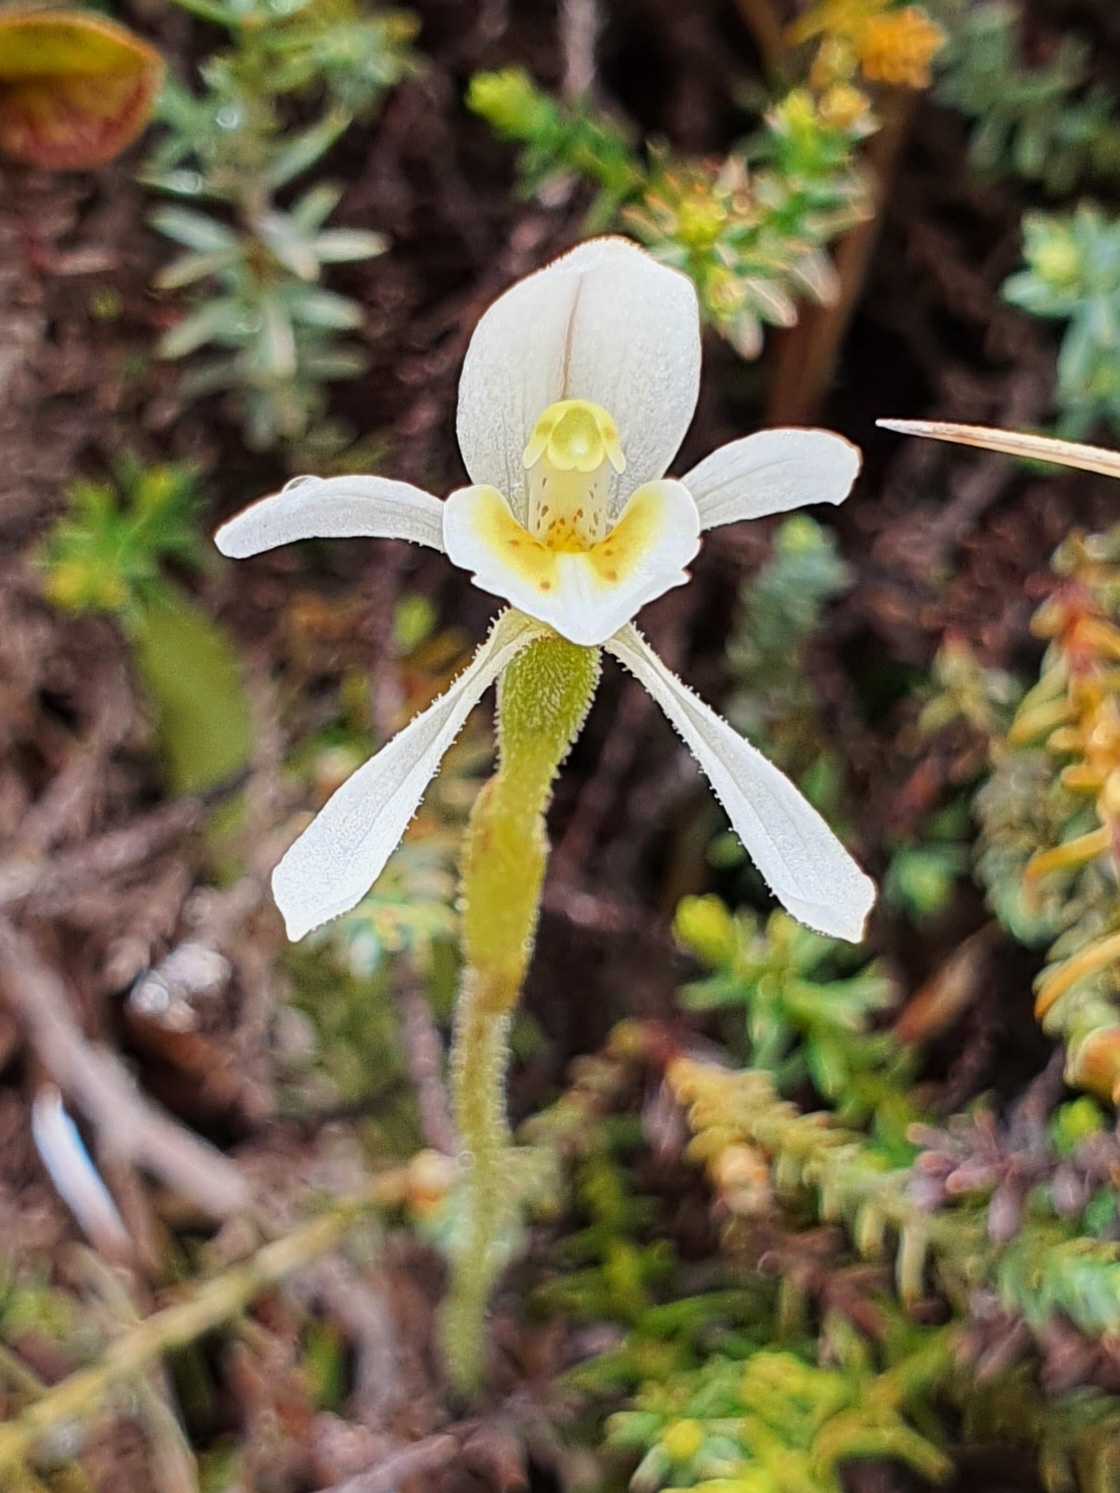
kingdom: Plantae
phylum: Tracheophyta
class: Liliopsida
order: Asparagales
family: Orchidaceae
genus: Aporostylis
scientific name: Aporostylis bifolia
